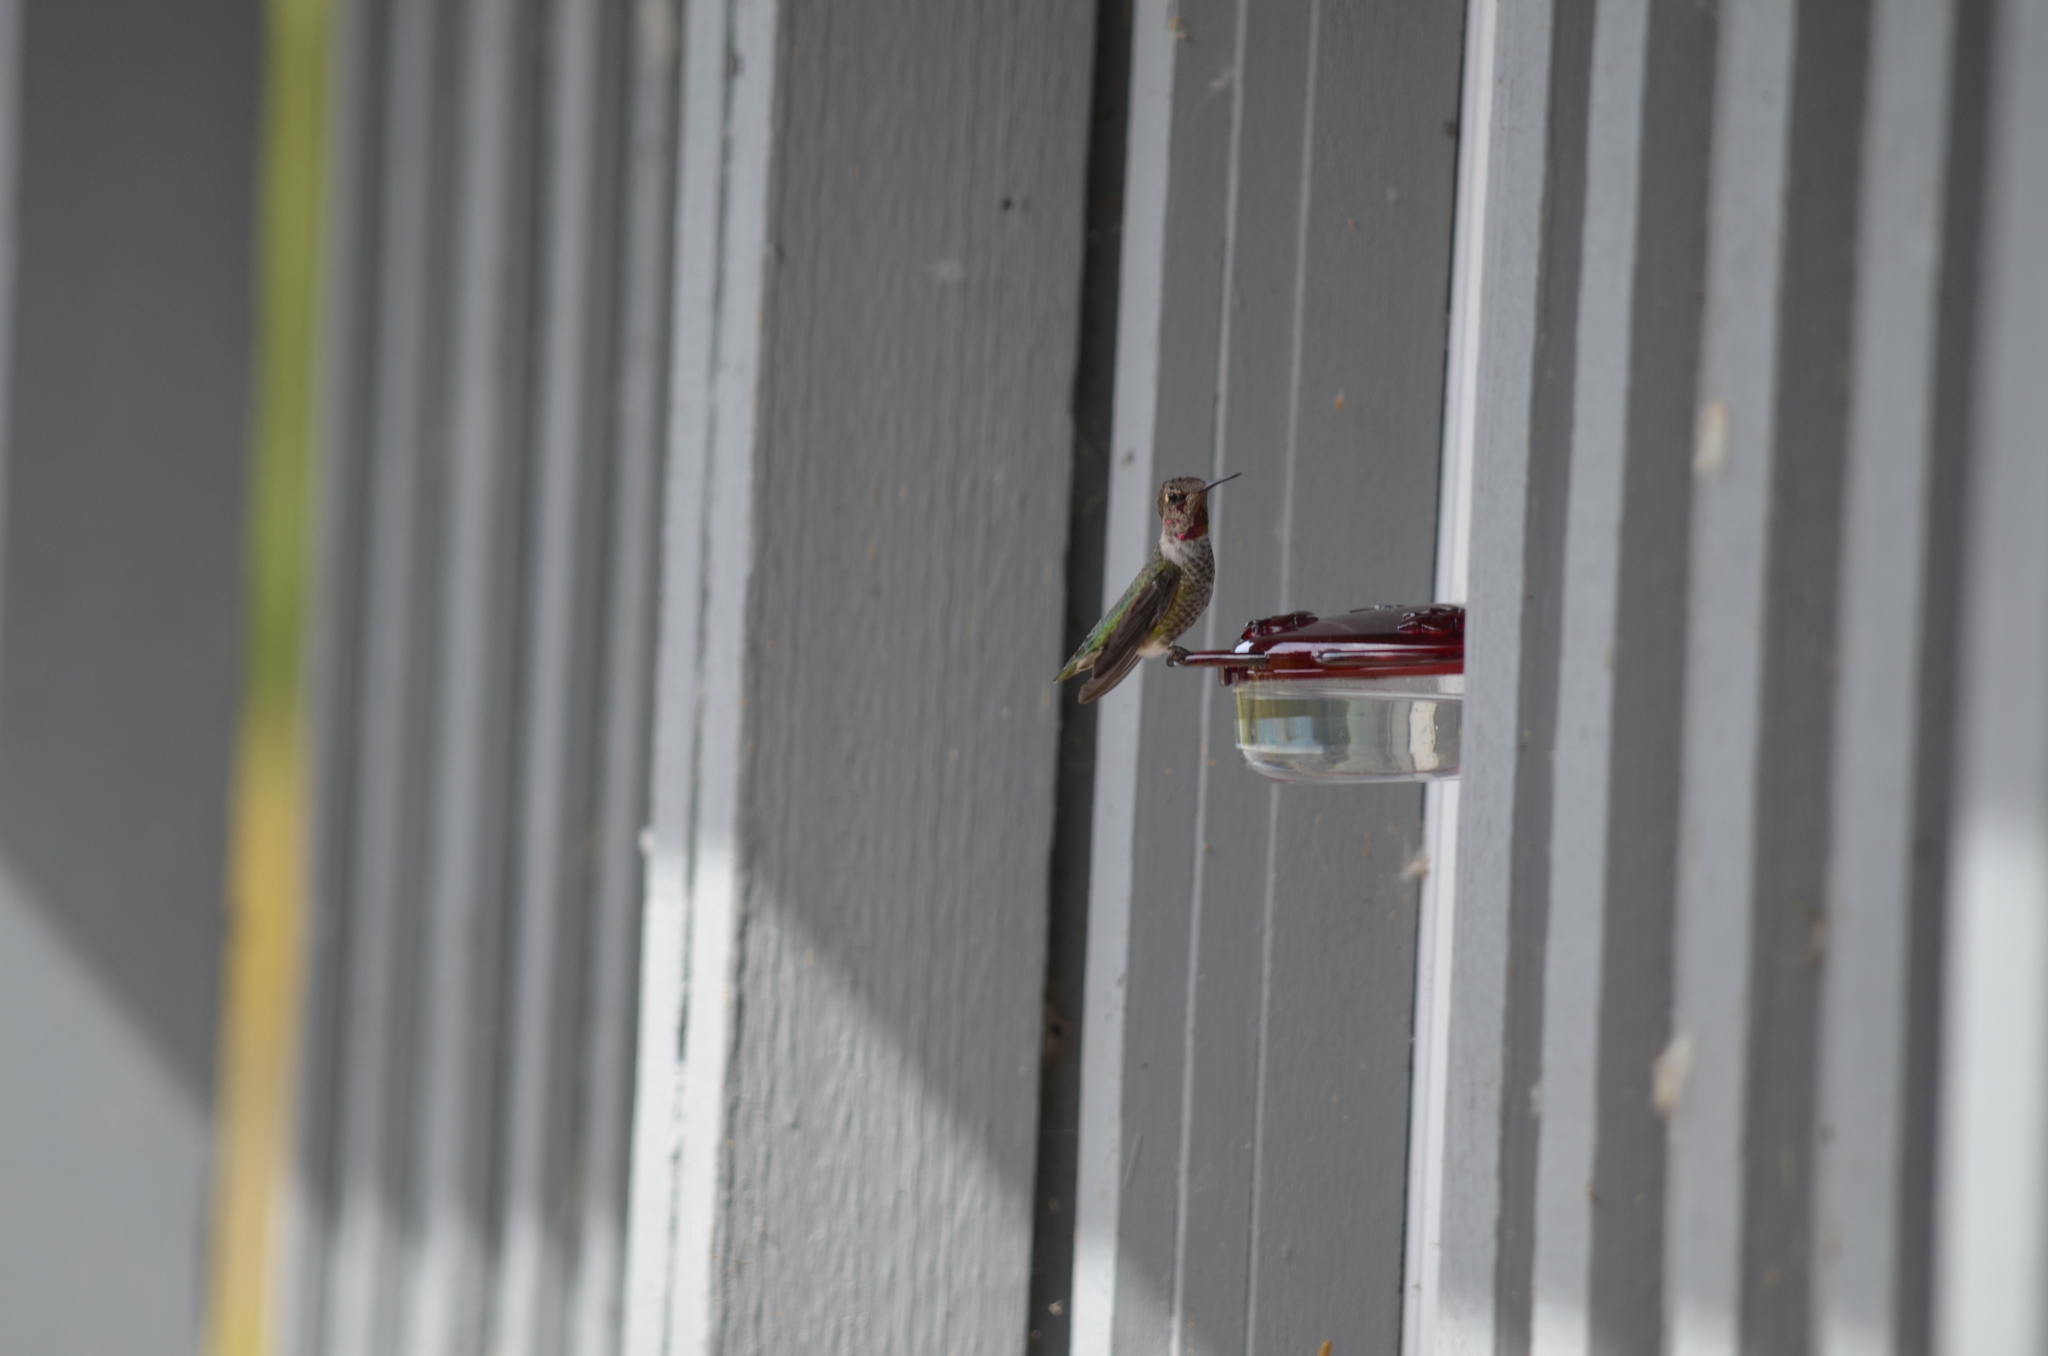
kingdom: Animalia
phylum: Chordata
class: Aves
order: Apodiformes
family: Trochilidae
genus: Calypte
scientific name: Calypte anna
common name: Anna's hummingbird
